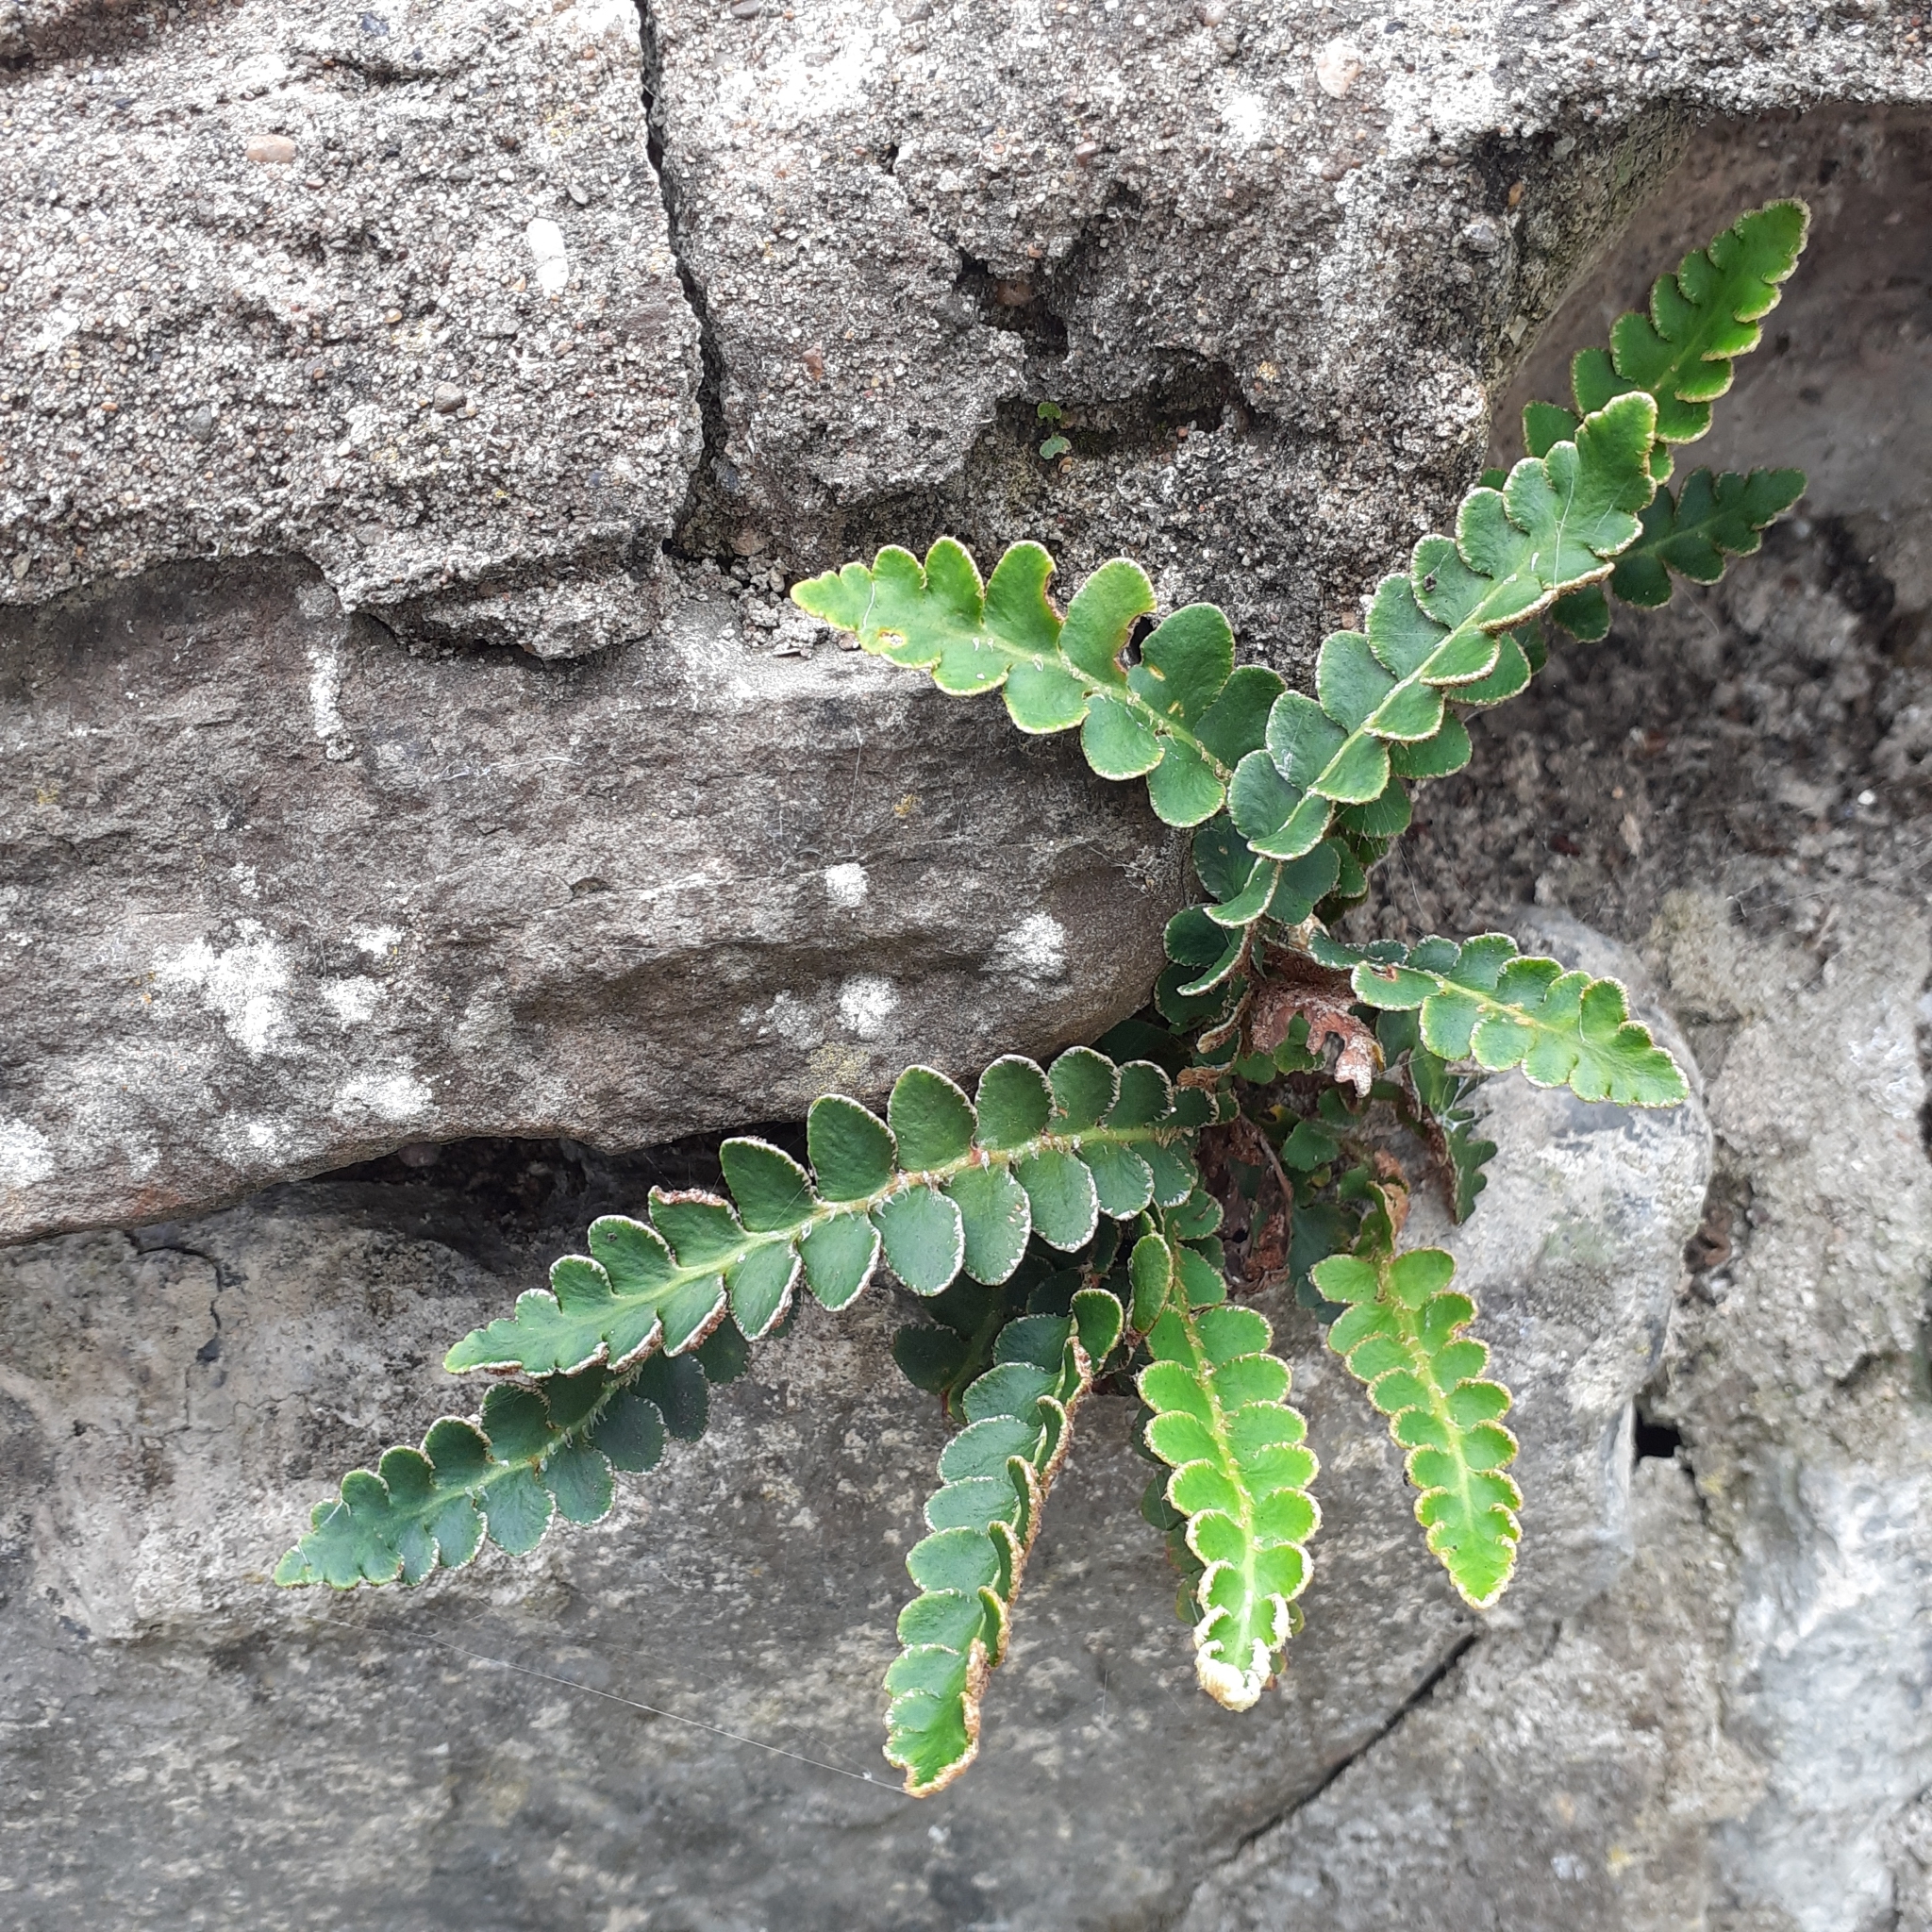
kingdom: Plantae
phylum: Tracheophyta
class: Polypodiopsida
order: Polypodiales
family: Aspleniaceae
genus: Asplenium
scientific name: Asplenium ceterach
